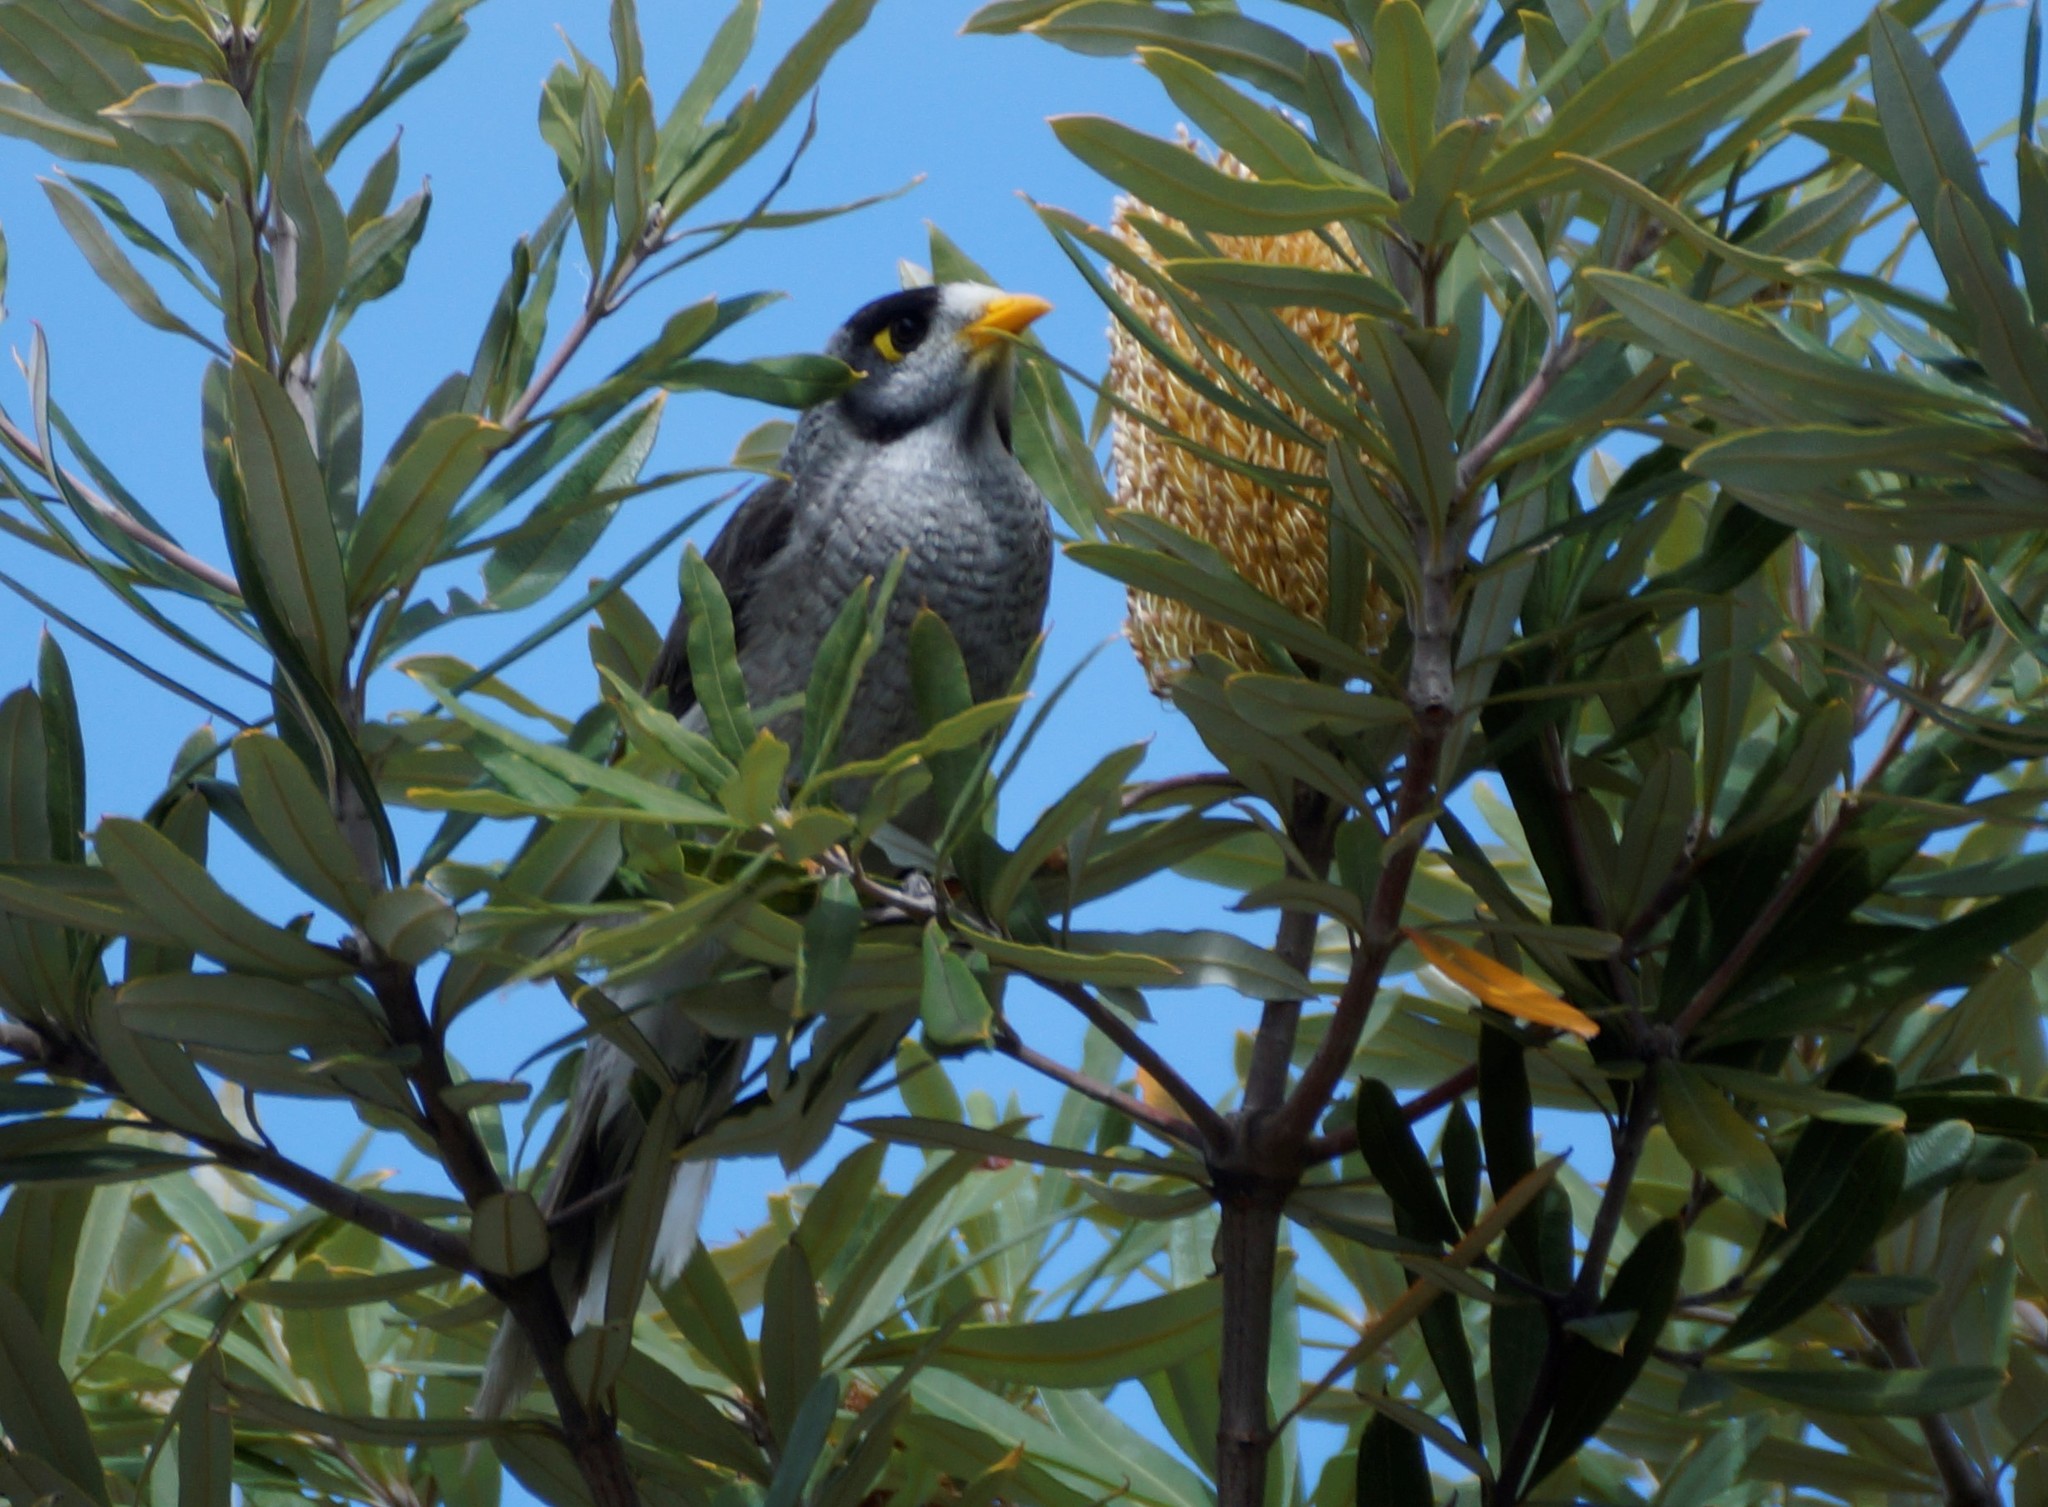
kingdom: Animalia
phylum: Chordata
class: Aves
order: Passeriformes
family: Meliphagidae
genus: Manorina
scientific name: Manorina melanocephala
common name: Noisy miner
